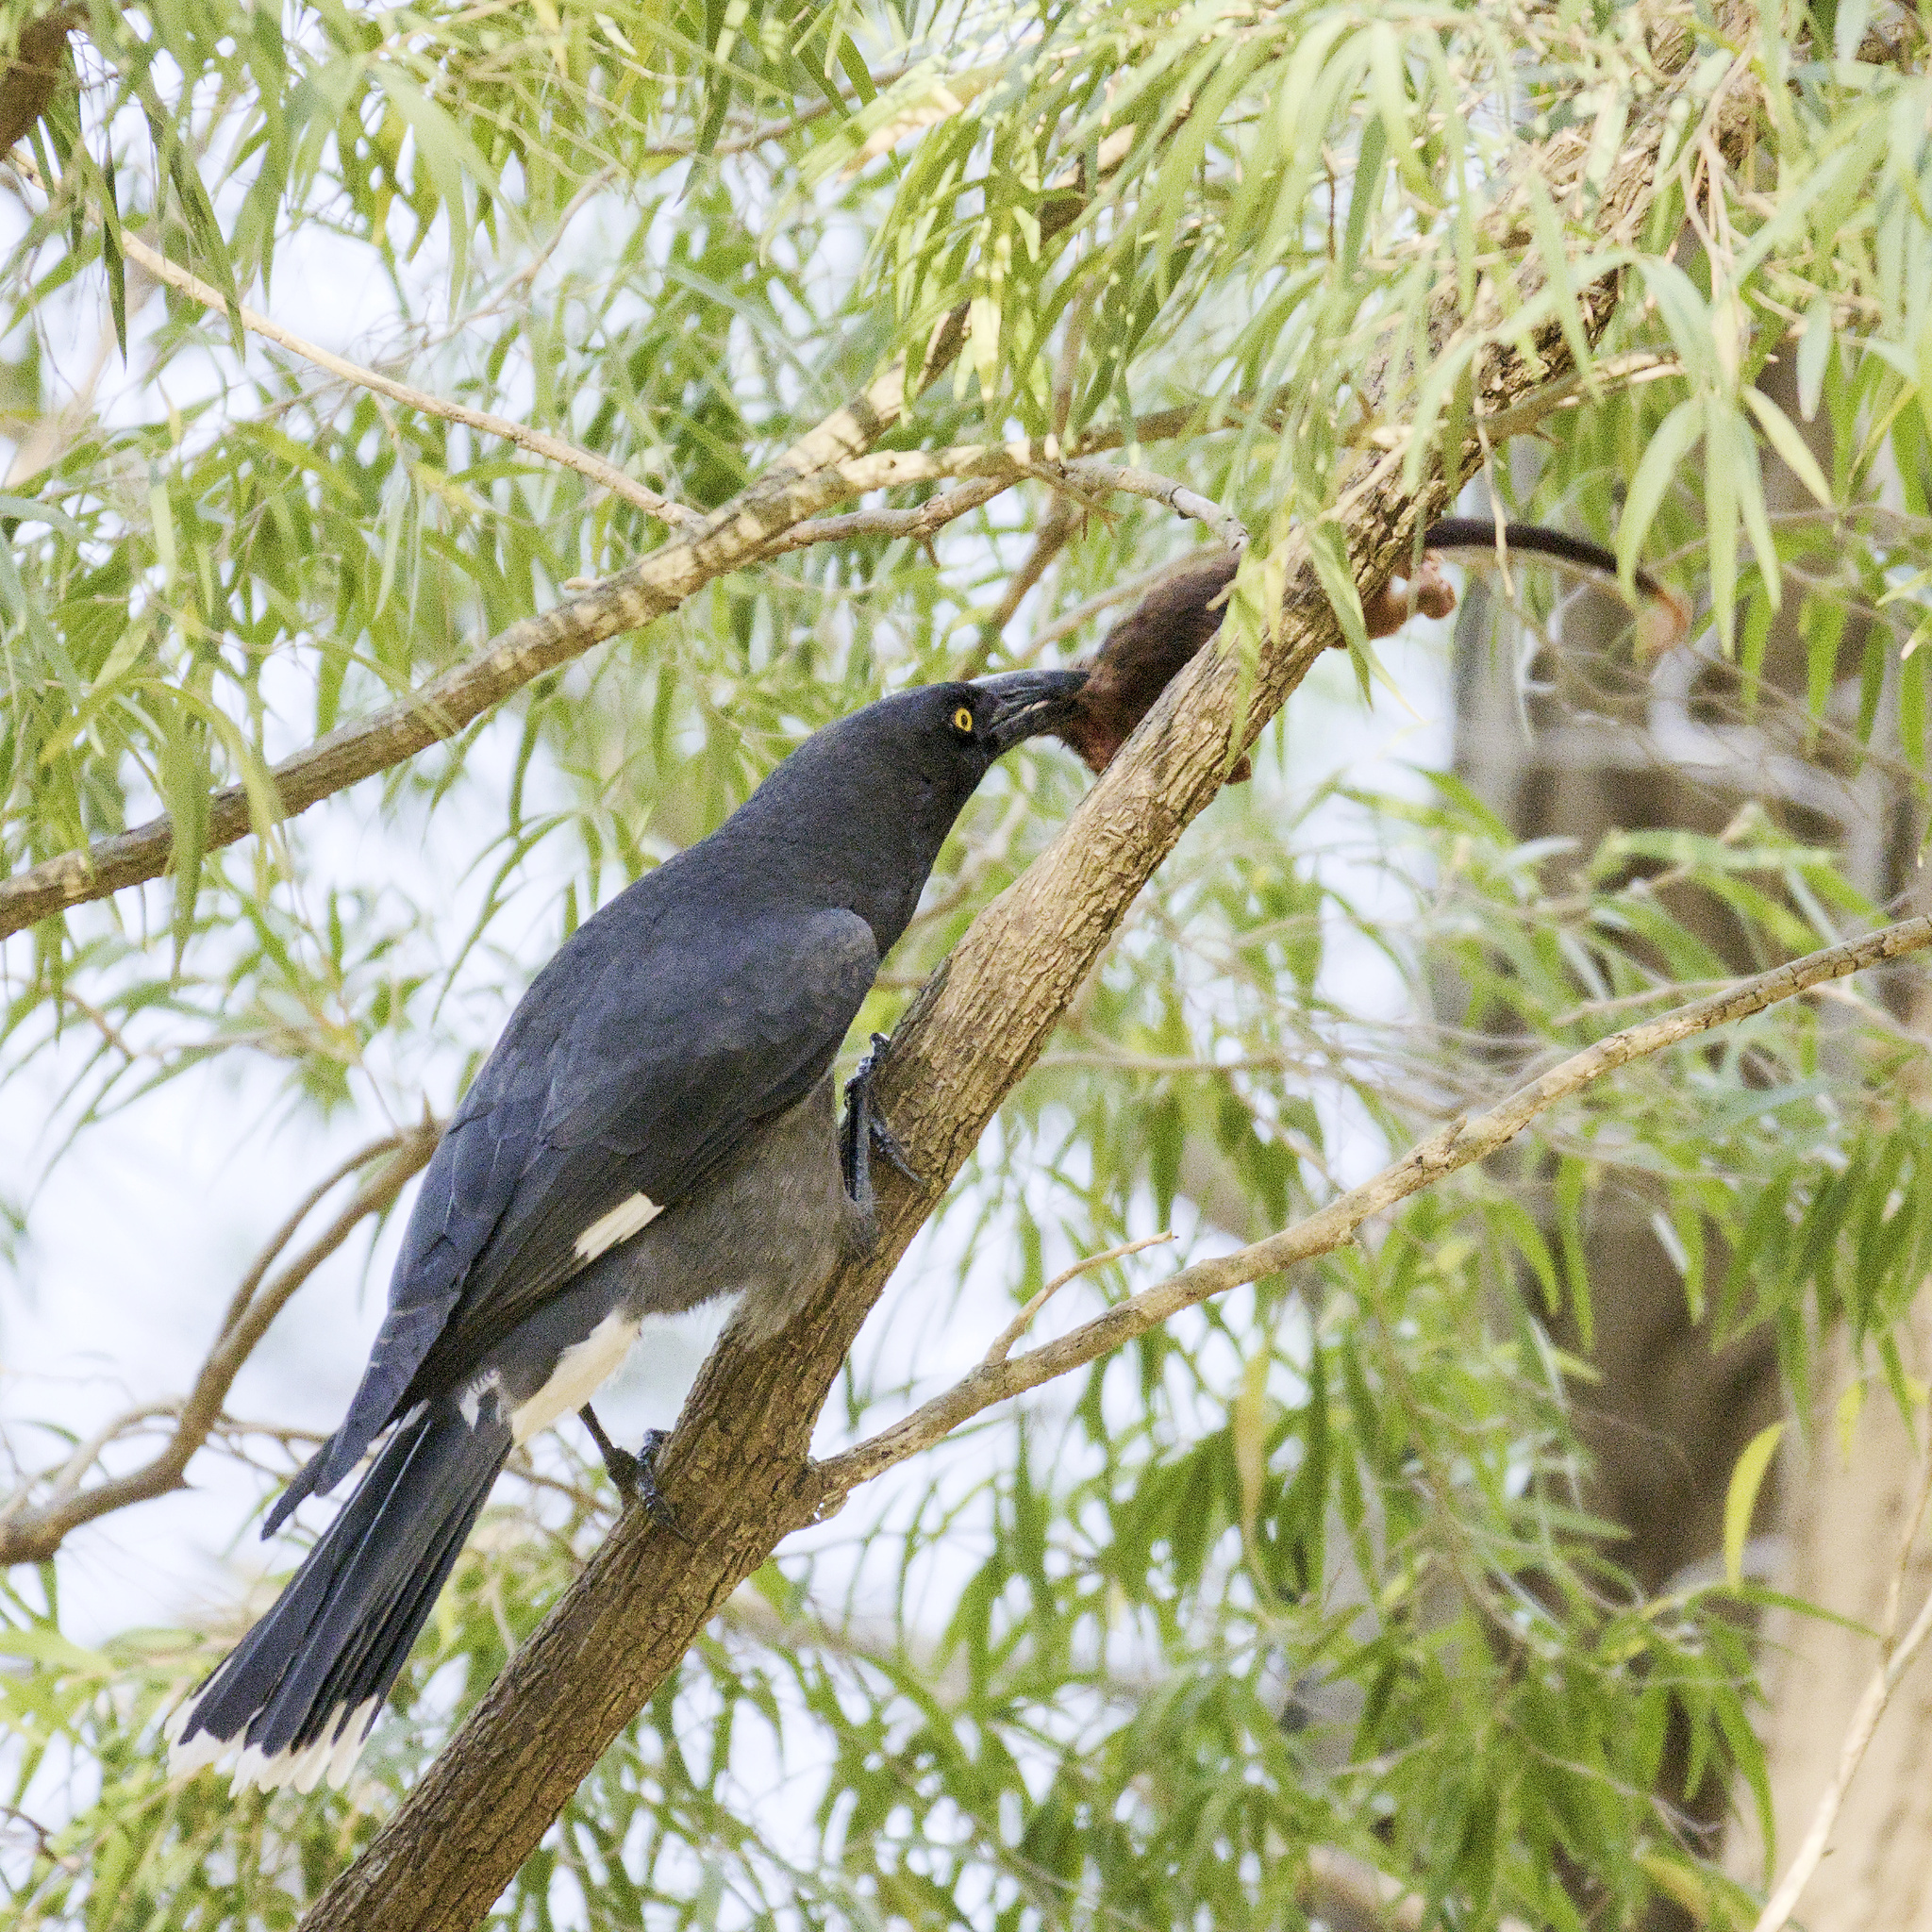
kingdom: Animalia
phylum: Chordata
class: Aves
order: Passeriformes
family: Cracticidae
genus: Strepera
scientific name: Strepera graculina
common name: Pied currawong
